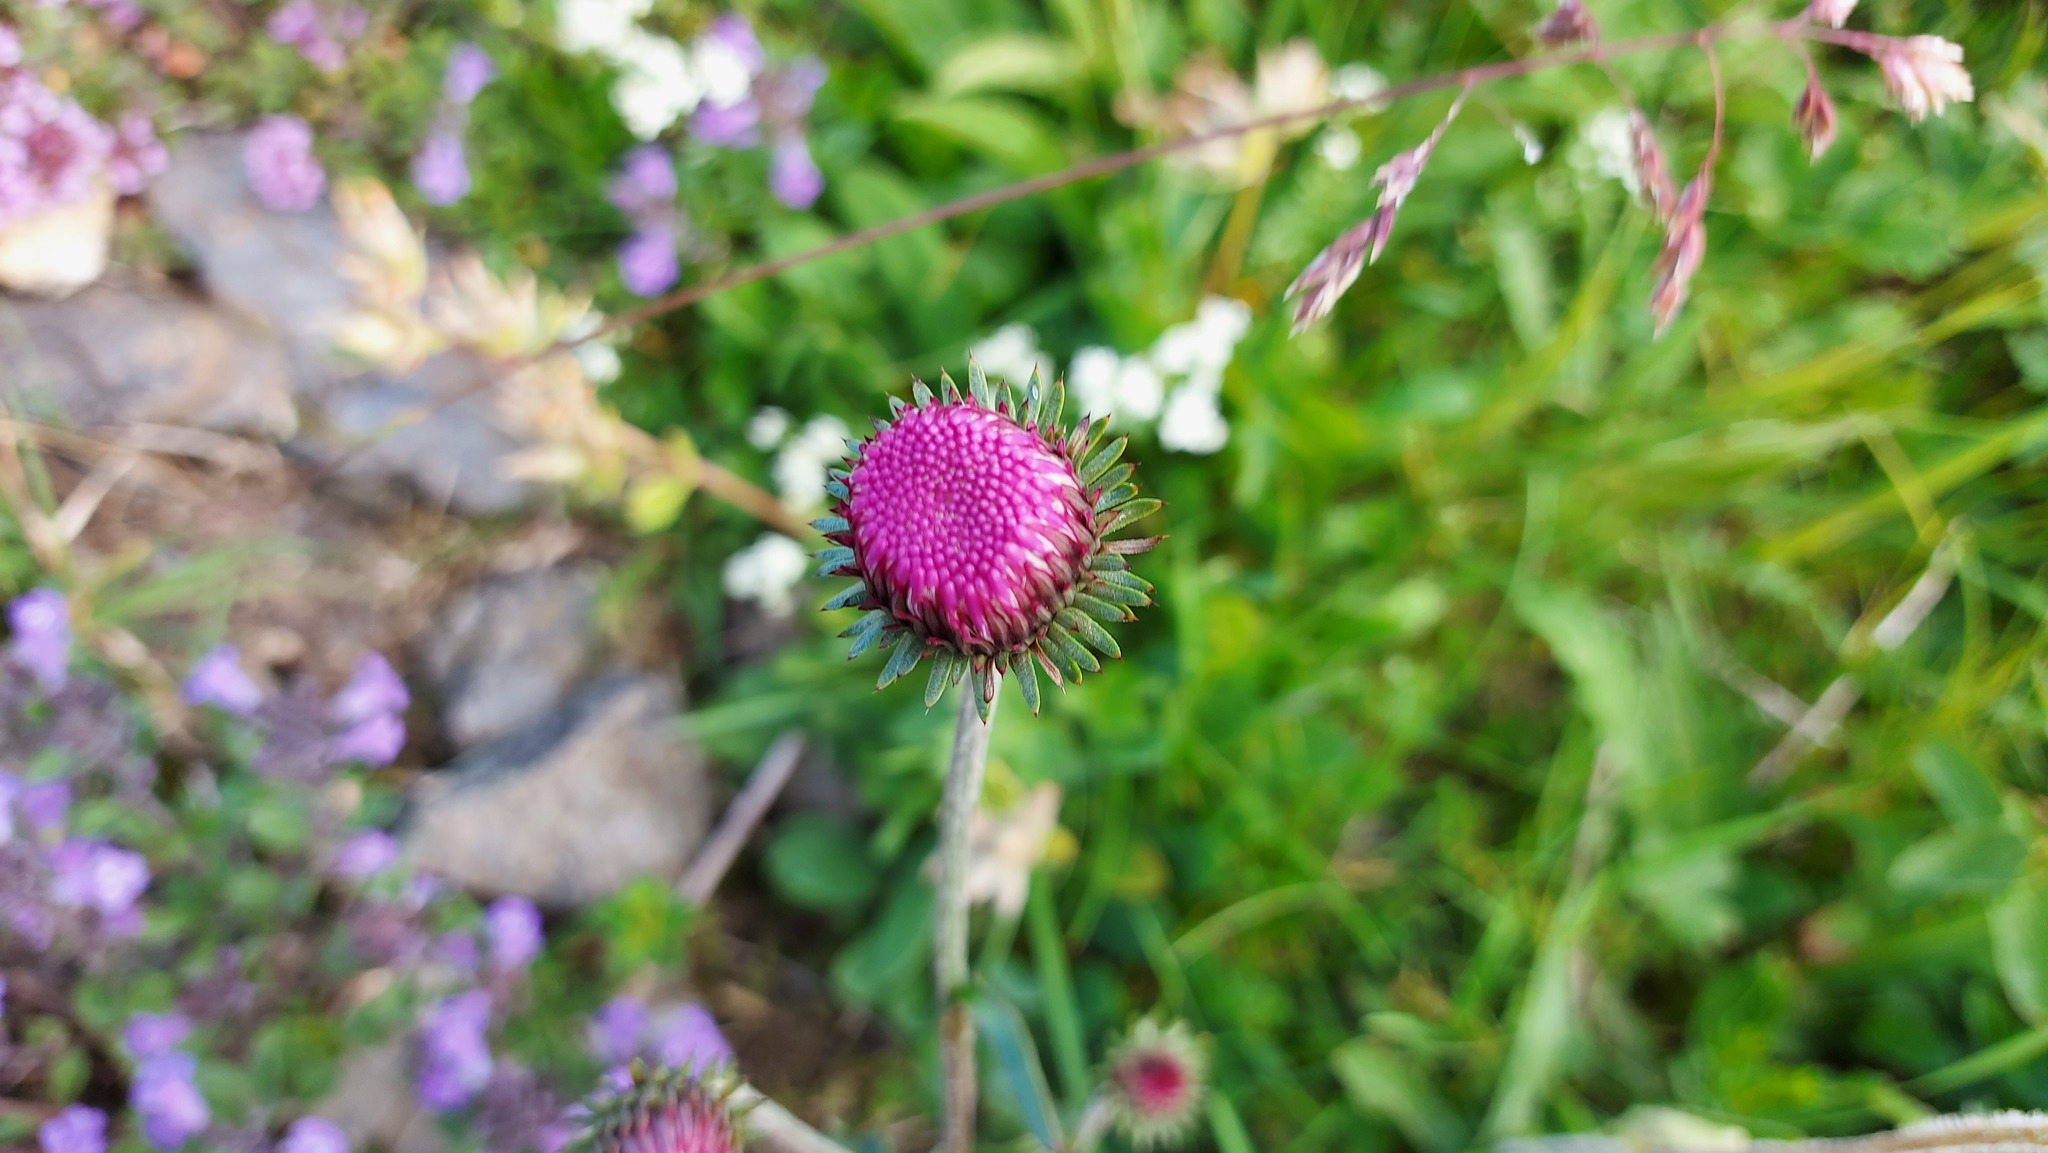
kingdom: Plantae
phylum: Tracheophyta
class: Magnoliopsida
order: Asterales
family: Asteraceae
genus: Carduus
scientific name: Carduus defloratus
